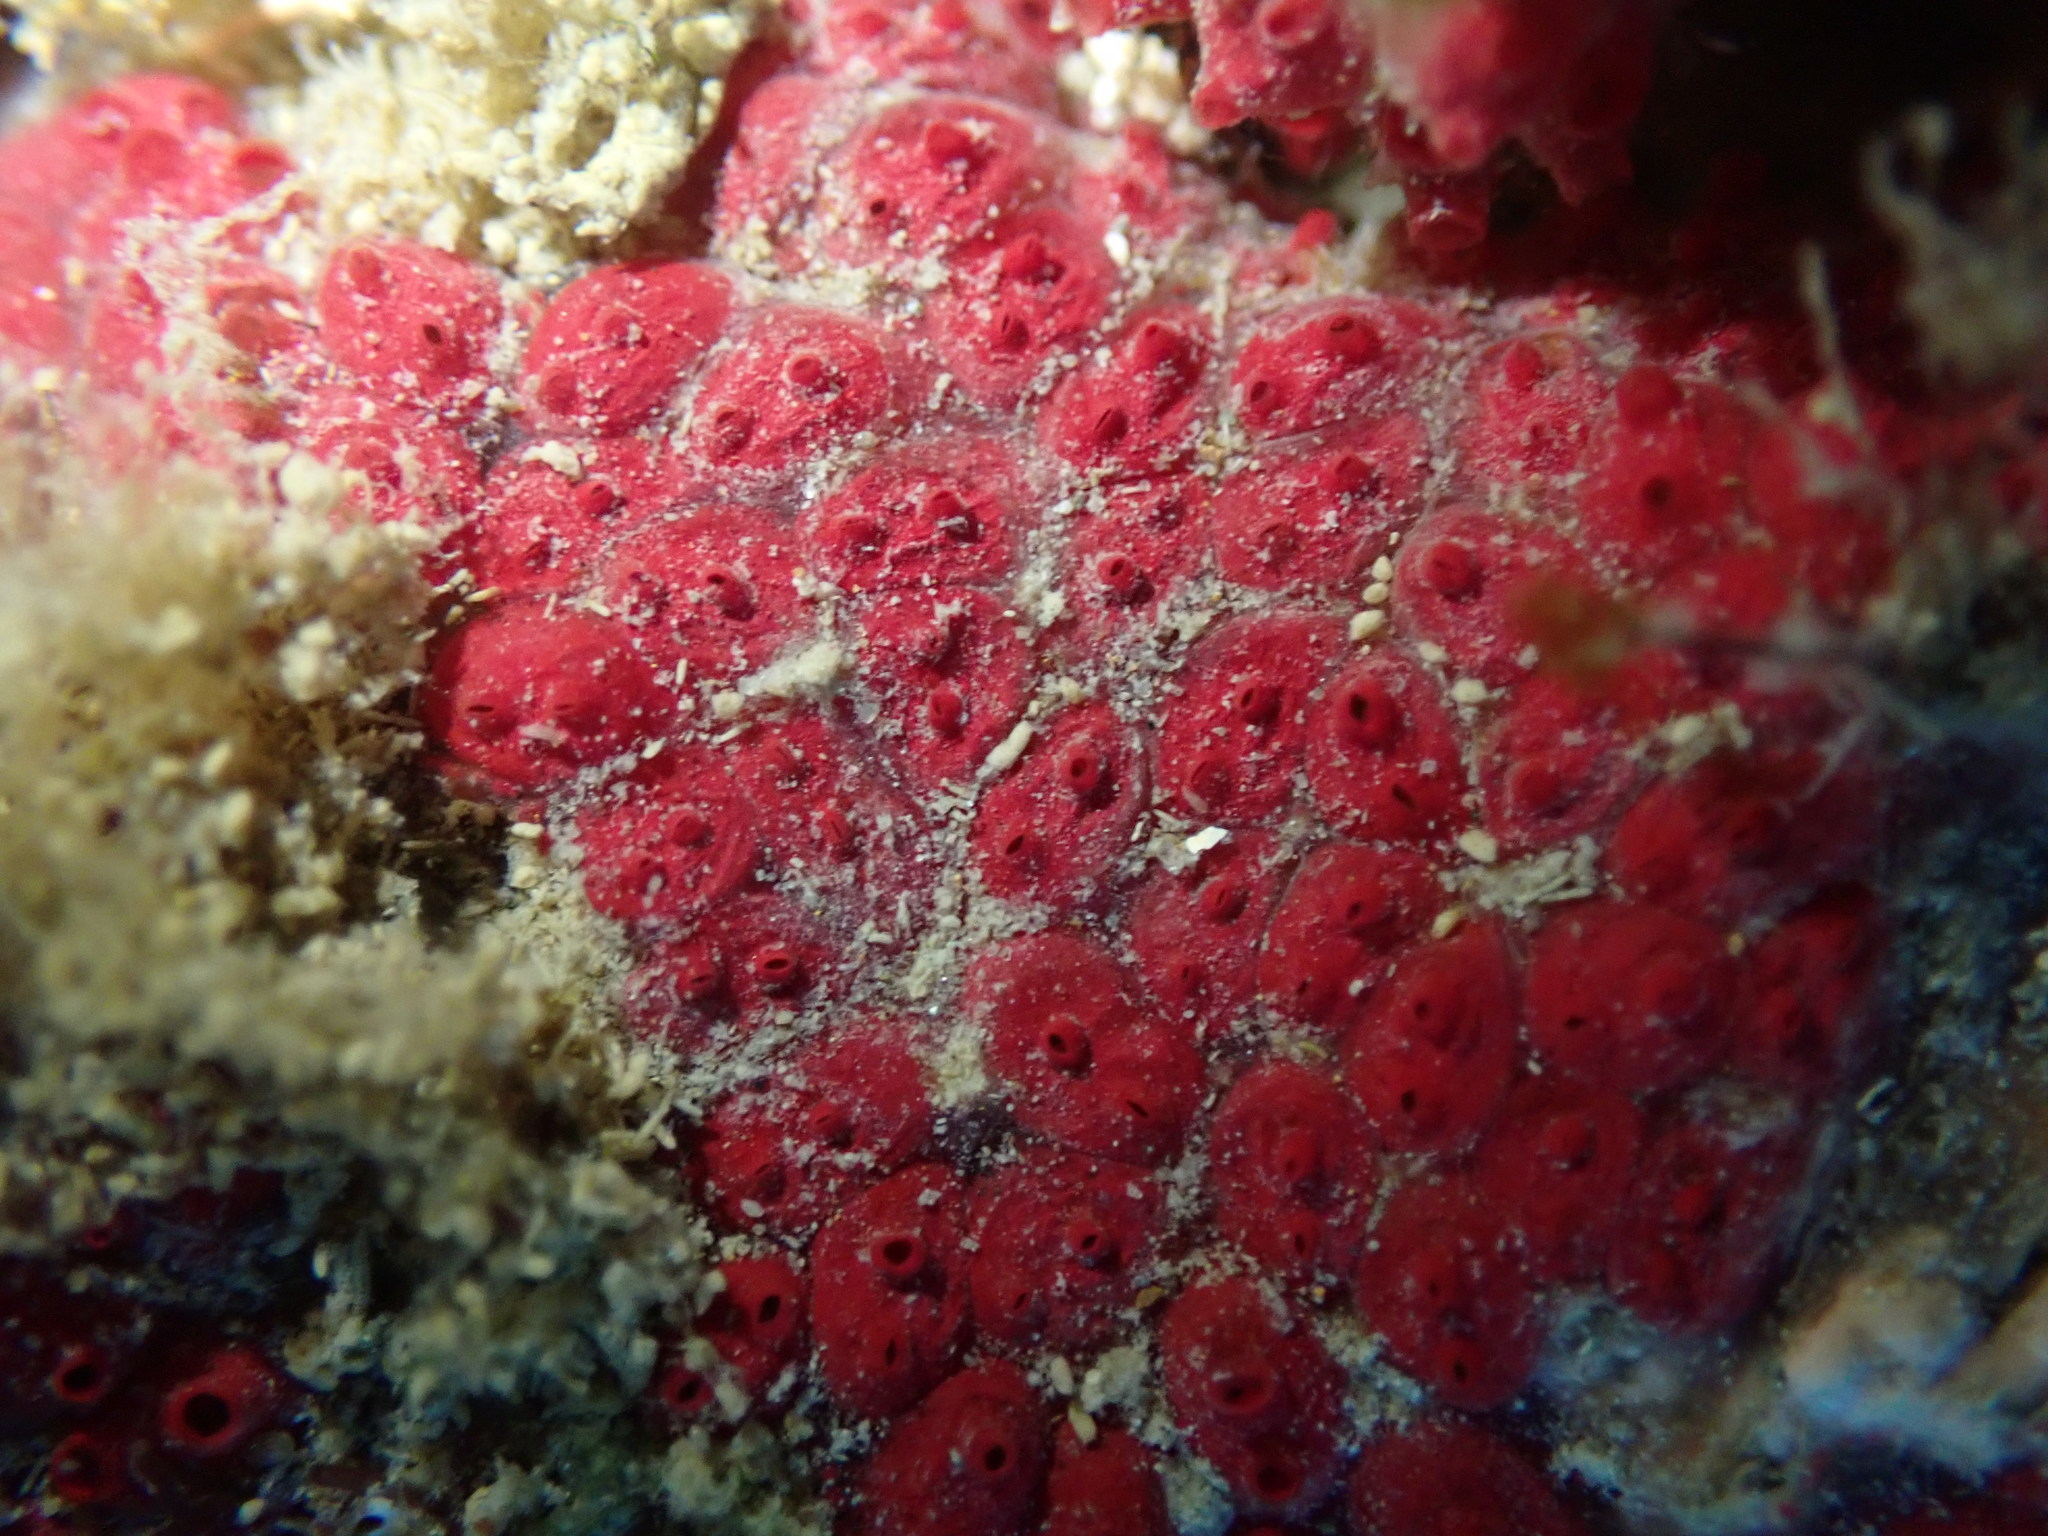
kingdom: Animalia
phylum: Chordata
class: Ascidiacea
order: Stolidobranchia
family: Styelidae
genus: Symplegma
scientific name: Symplegma rubra
